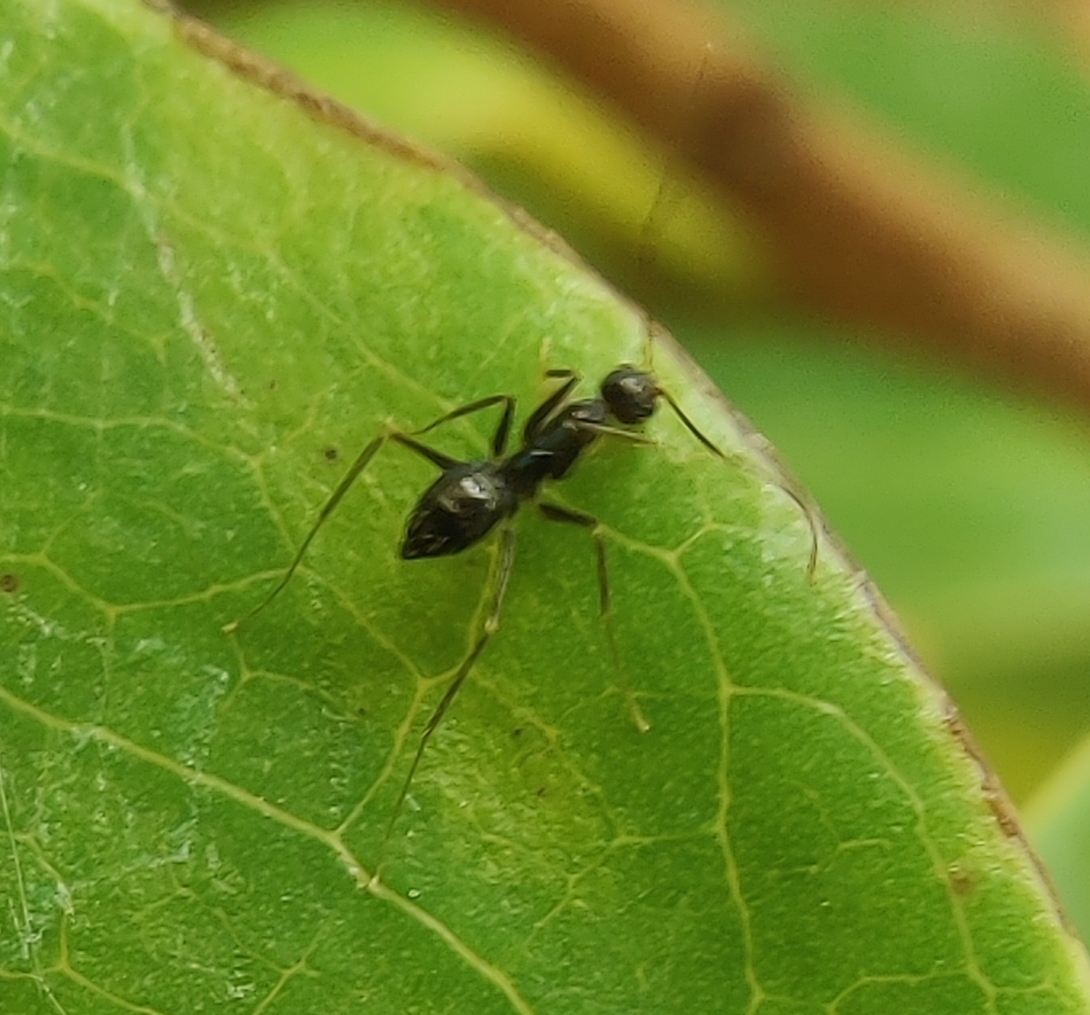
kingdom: Animalia
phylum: Arthropoda
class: Insecta
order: Hymenoptera
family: Formicidae
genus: Paratrechina
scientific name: Paratrechina longicornis
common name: Longhorned crazy ant
